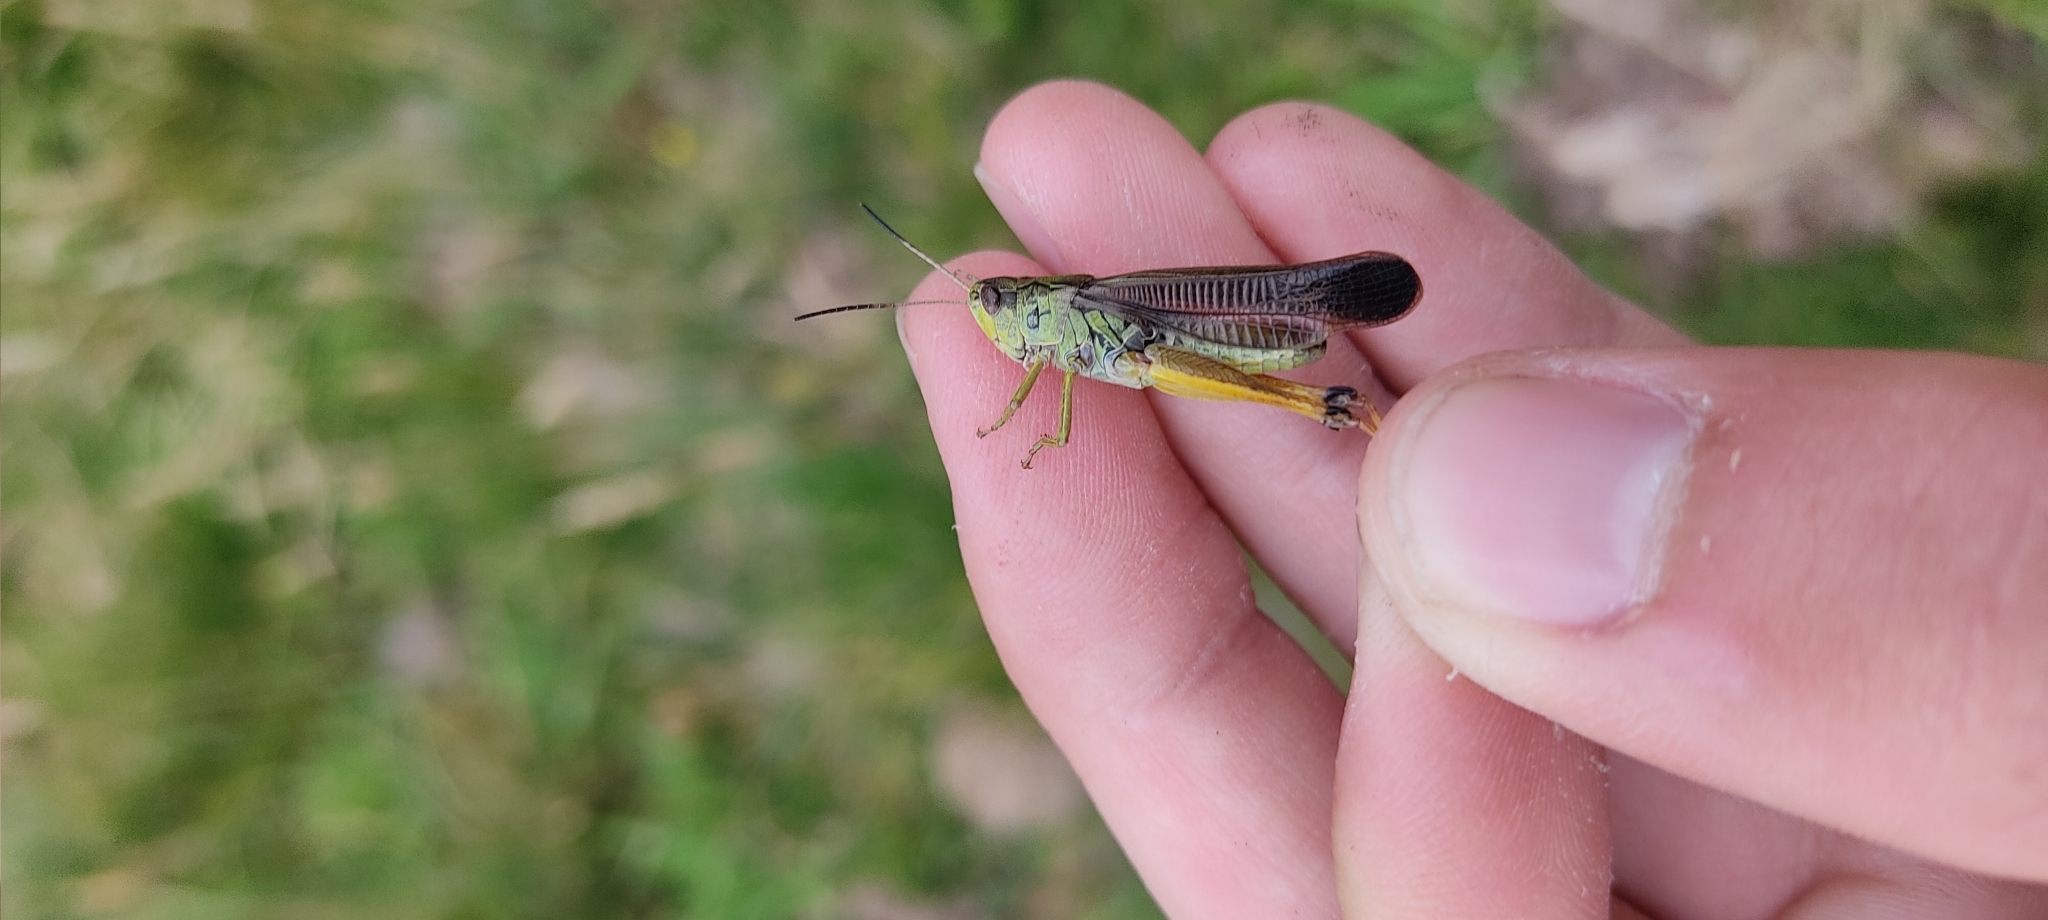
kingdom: Animalia
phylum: Arthropoda
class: Insecta
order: Orthoptera
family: Acrididae
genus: Stauroderus
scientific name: Stauroderus scalaris
